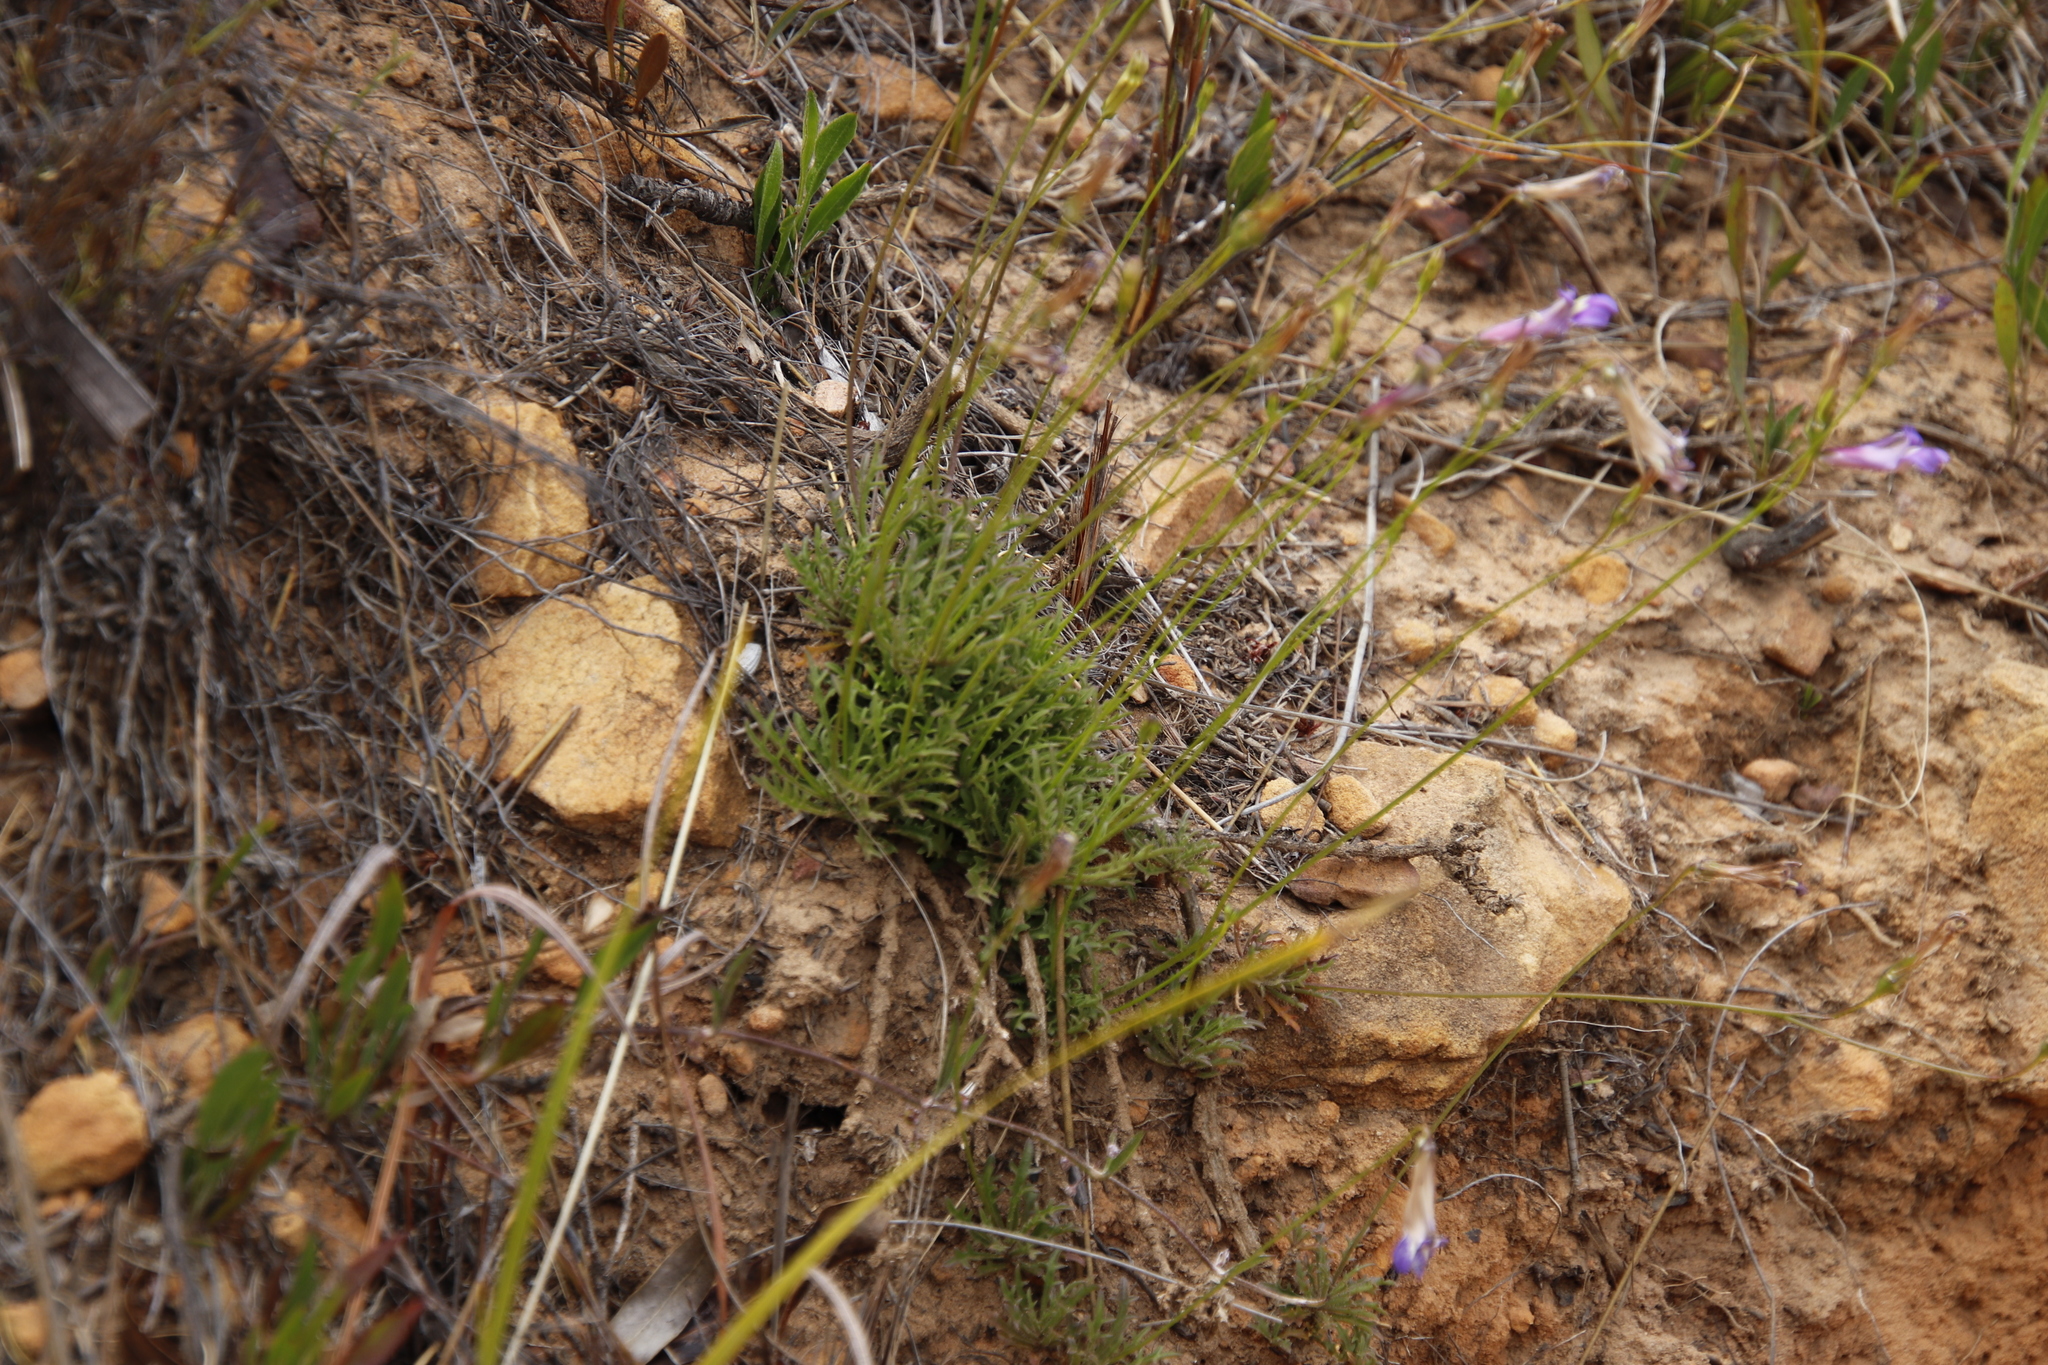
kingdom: Plantae
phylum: Tracheophyta
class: Magnoliopsida
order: Asterales
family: Campanulaceae
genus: Lobelia
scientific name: Lobelia coronopifolia
